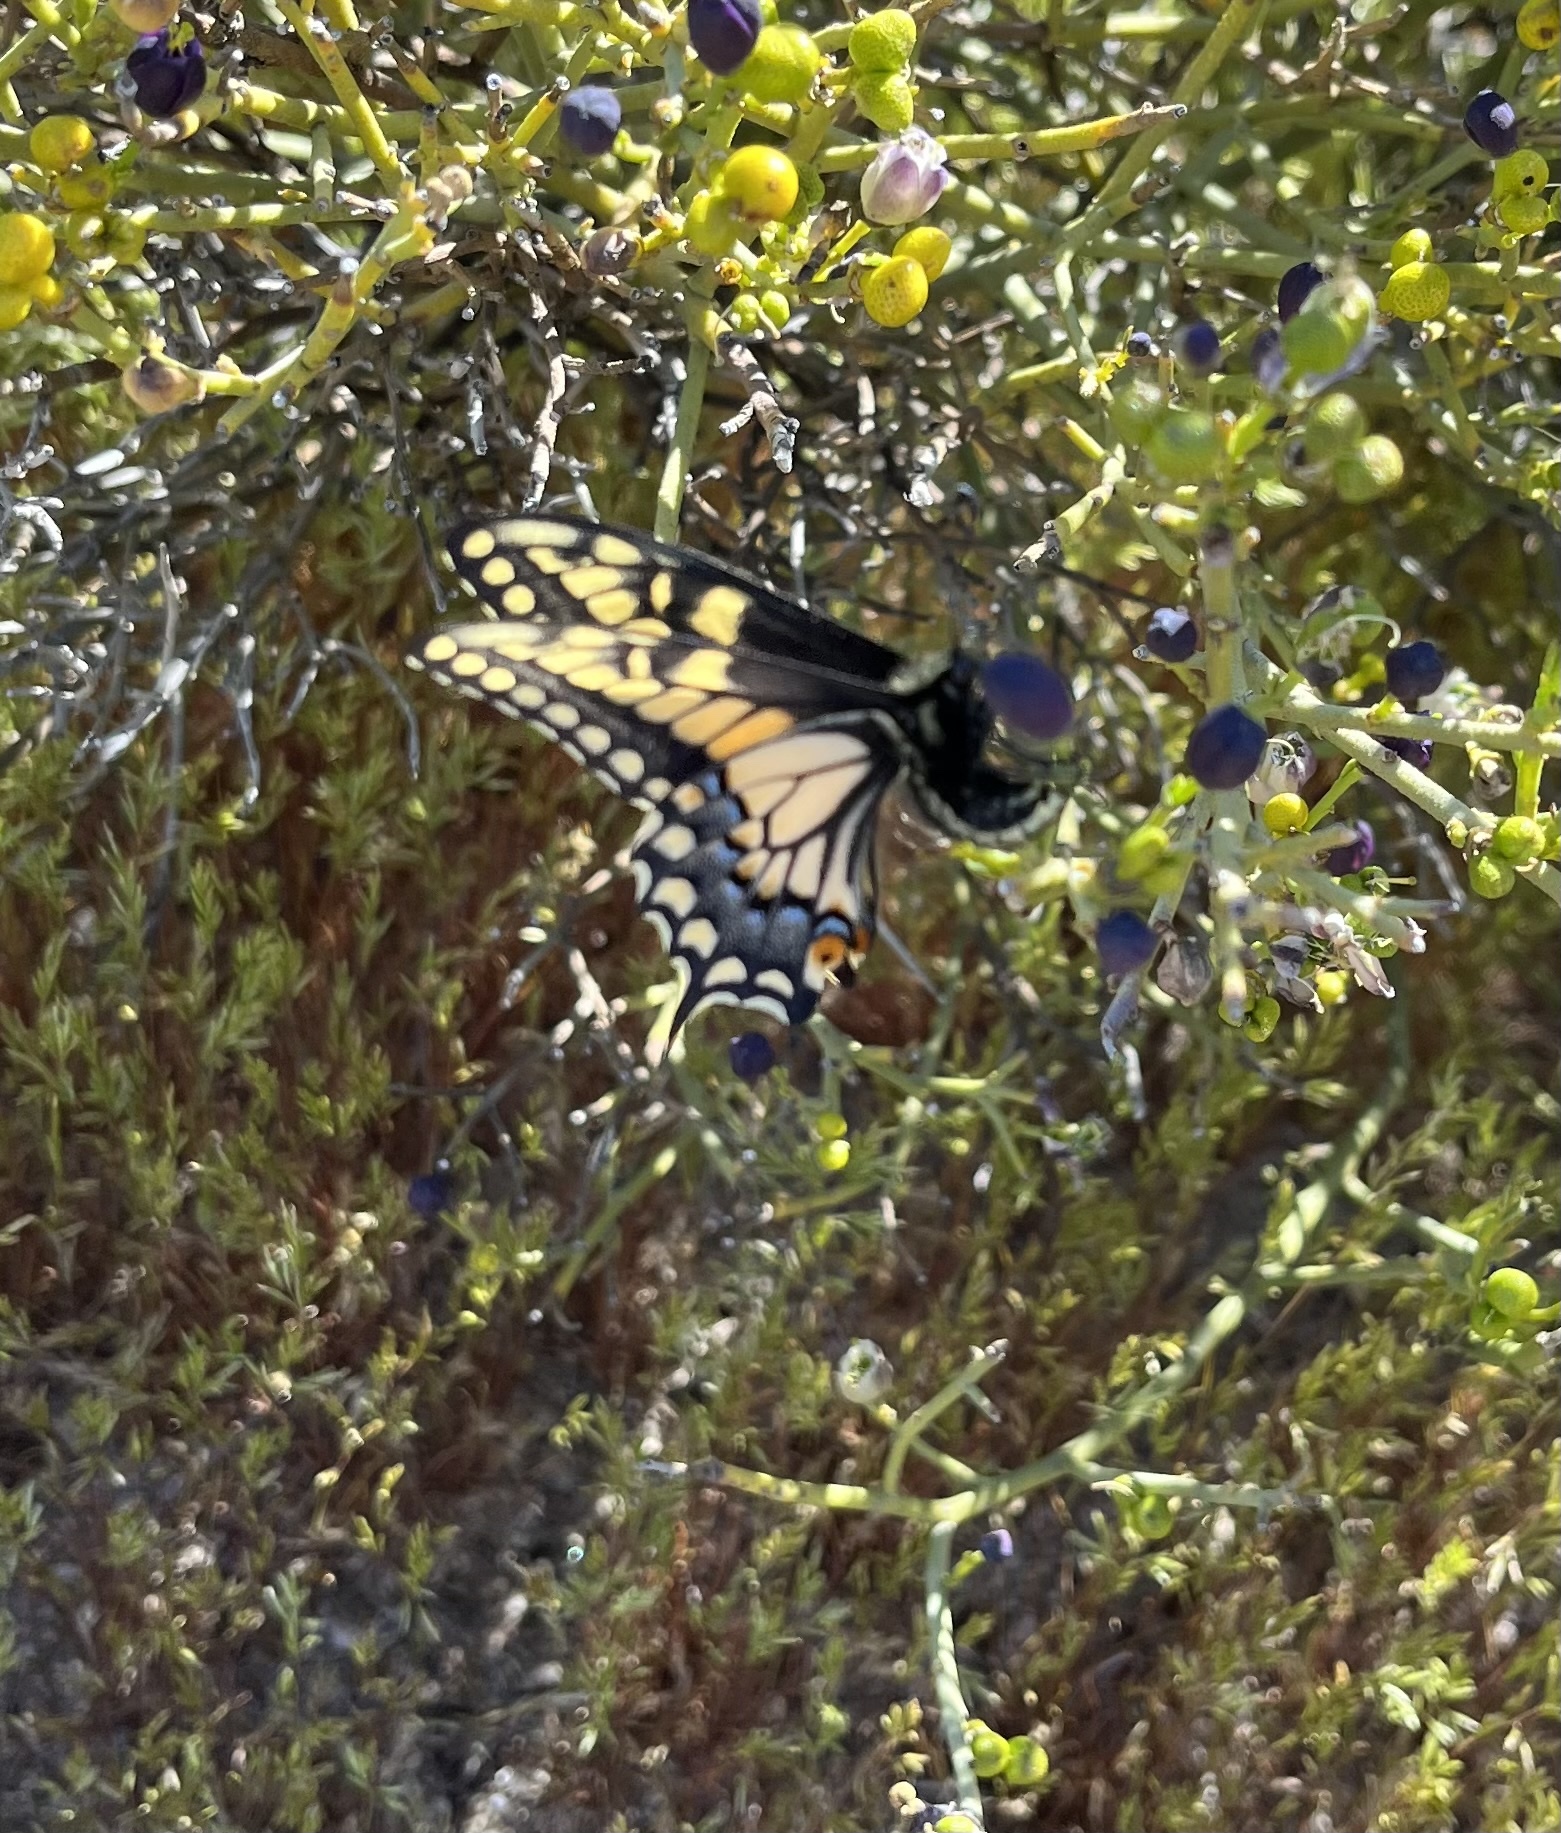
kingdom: Animalia
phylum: Arthropoda
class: Insecta
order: Lepidoptera
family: Papilionidae
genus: Papilio
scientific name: Papilio polyxenes
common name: Black swallowtail
